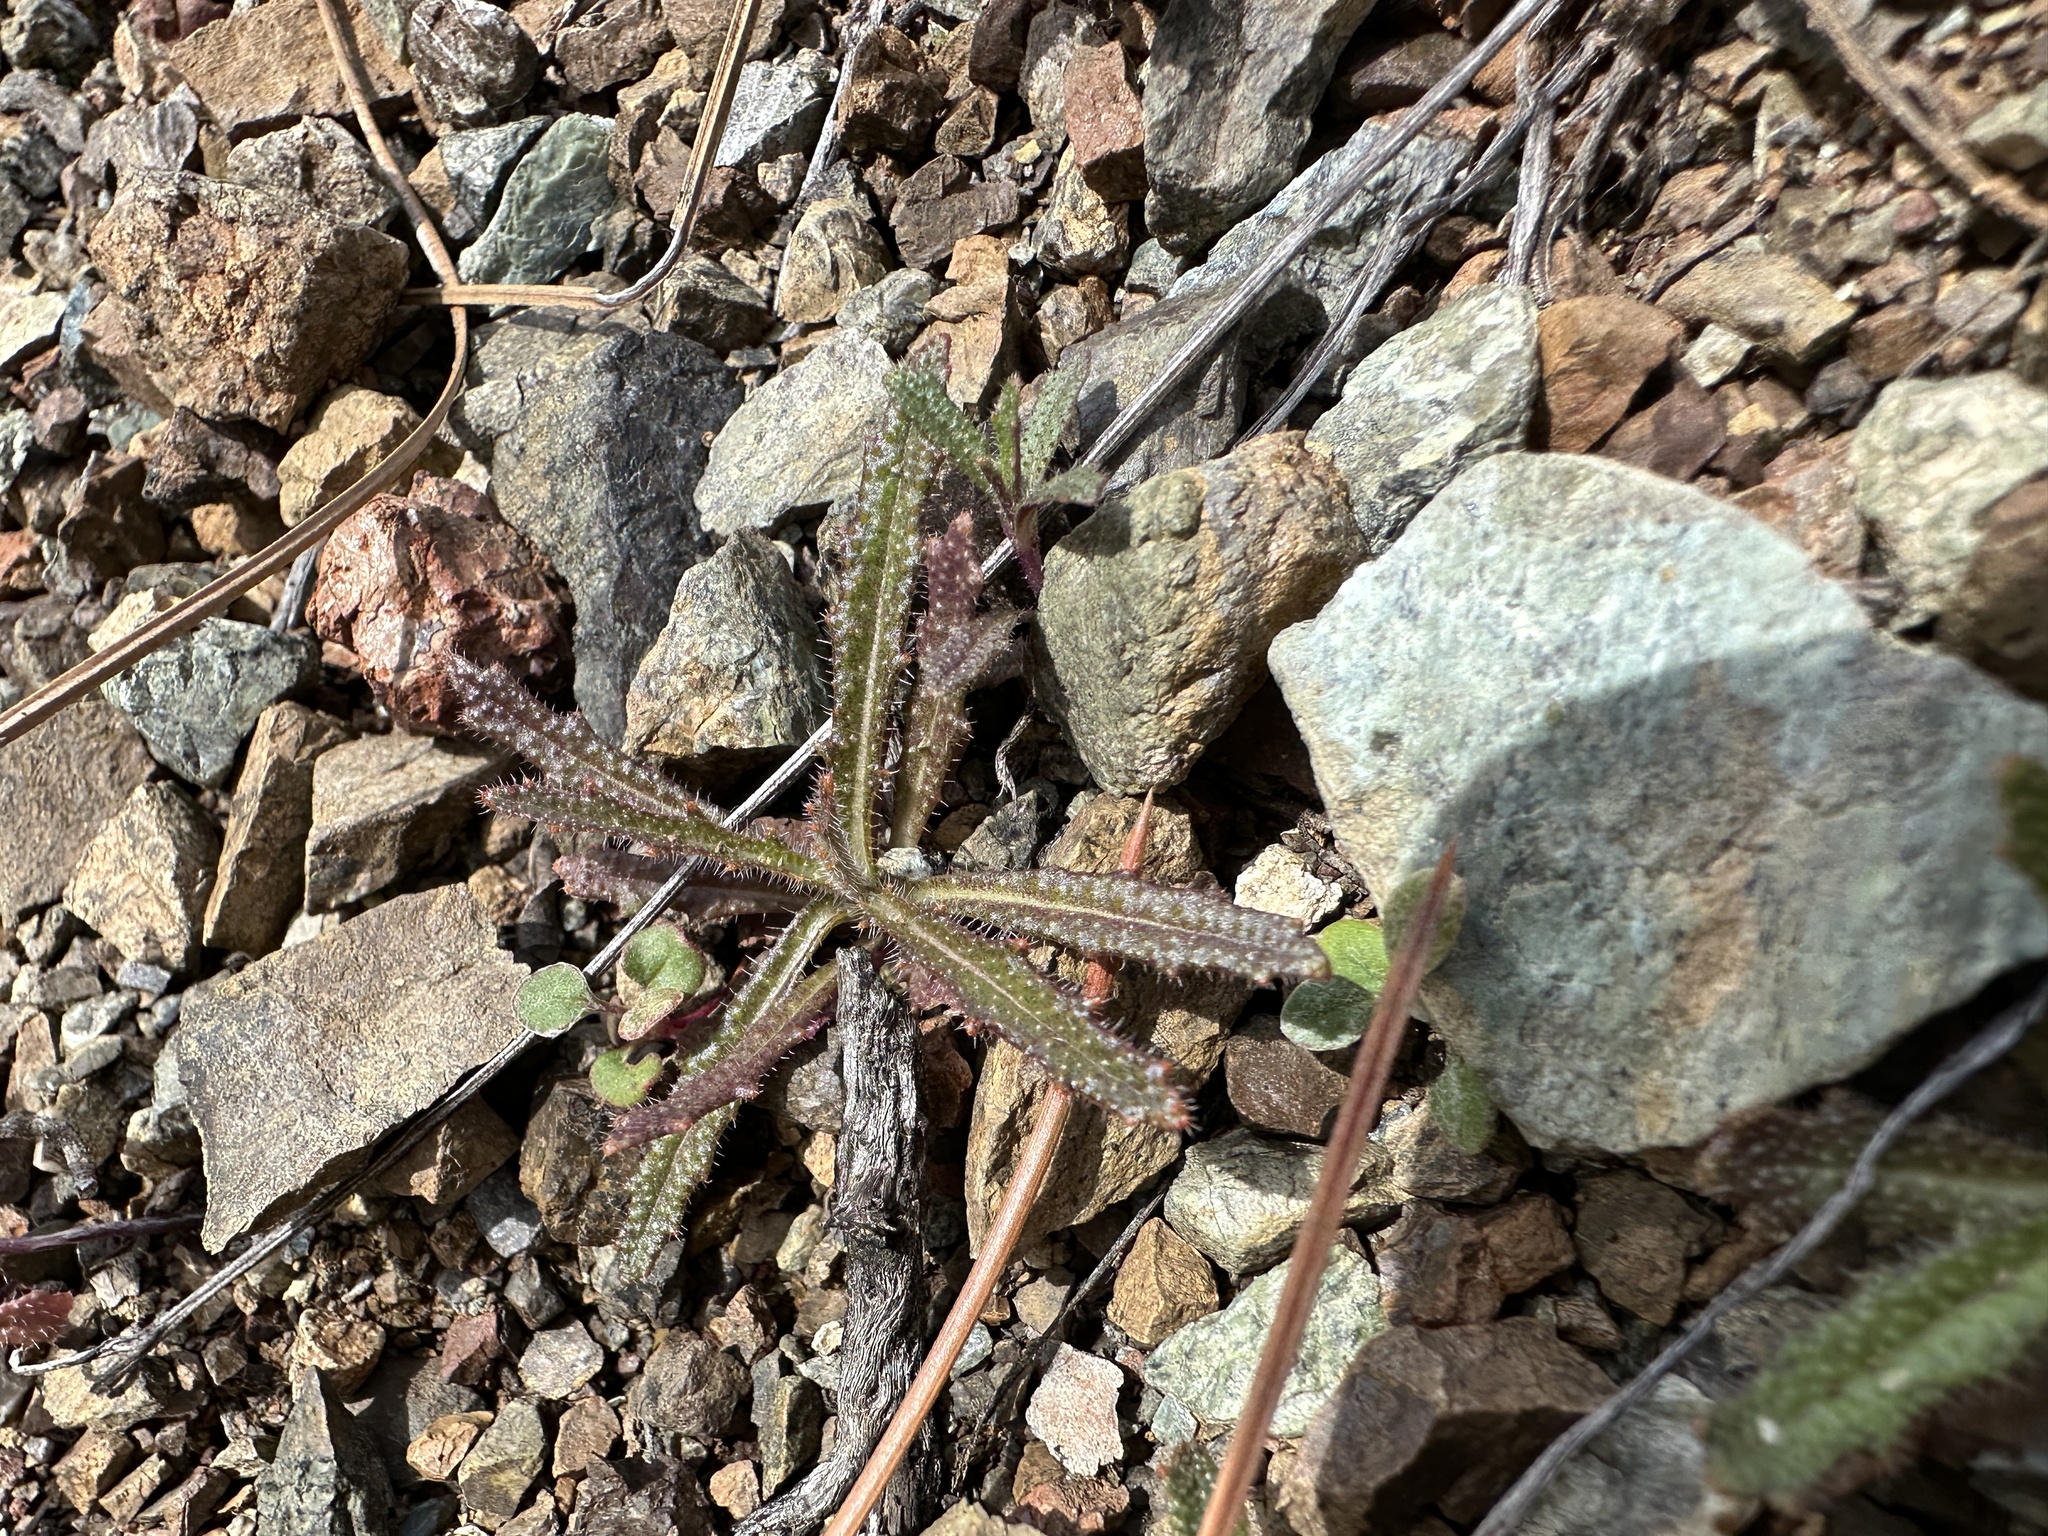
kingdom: Plantae
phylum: Tracheophyta
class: Magnoliopsida
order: Brassicales
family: Brassicaceae
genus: Streptanthus
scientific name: Streptanthus glandulosus
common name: Jewel-flower
